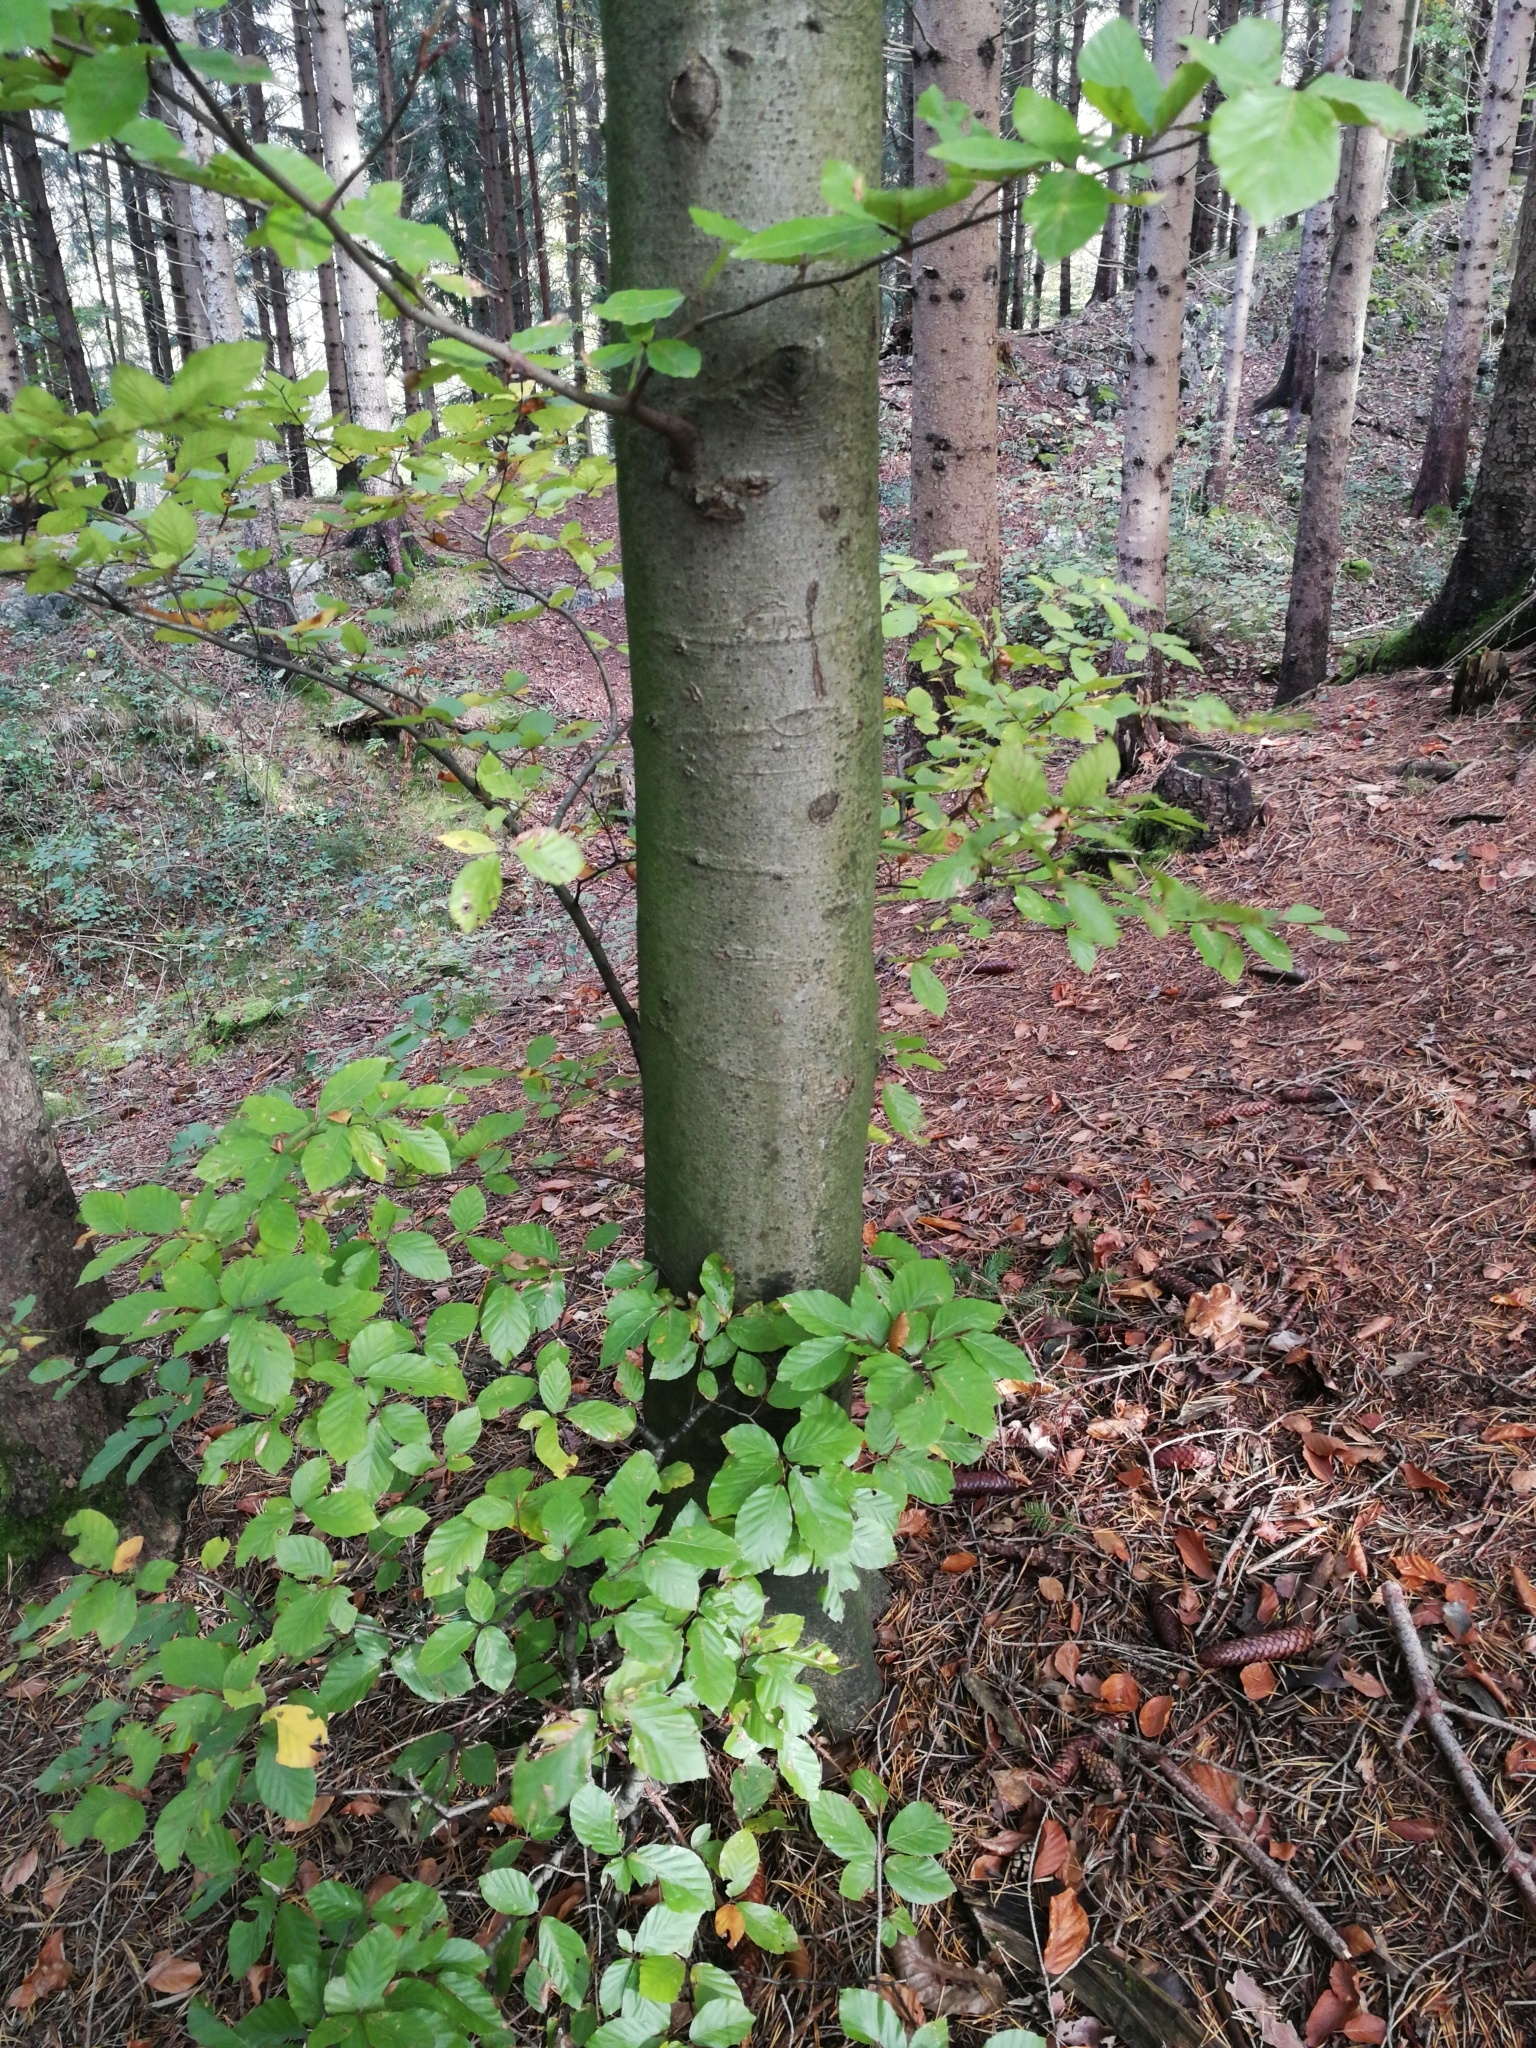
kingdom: Plantae
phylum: Tracheophyta
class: Magnoliopsida
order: Fagales
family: Fagaceae
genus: Fagus
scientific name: Fagus sylvatica
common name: Beech
